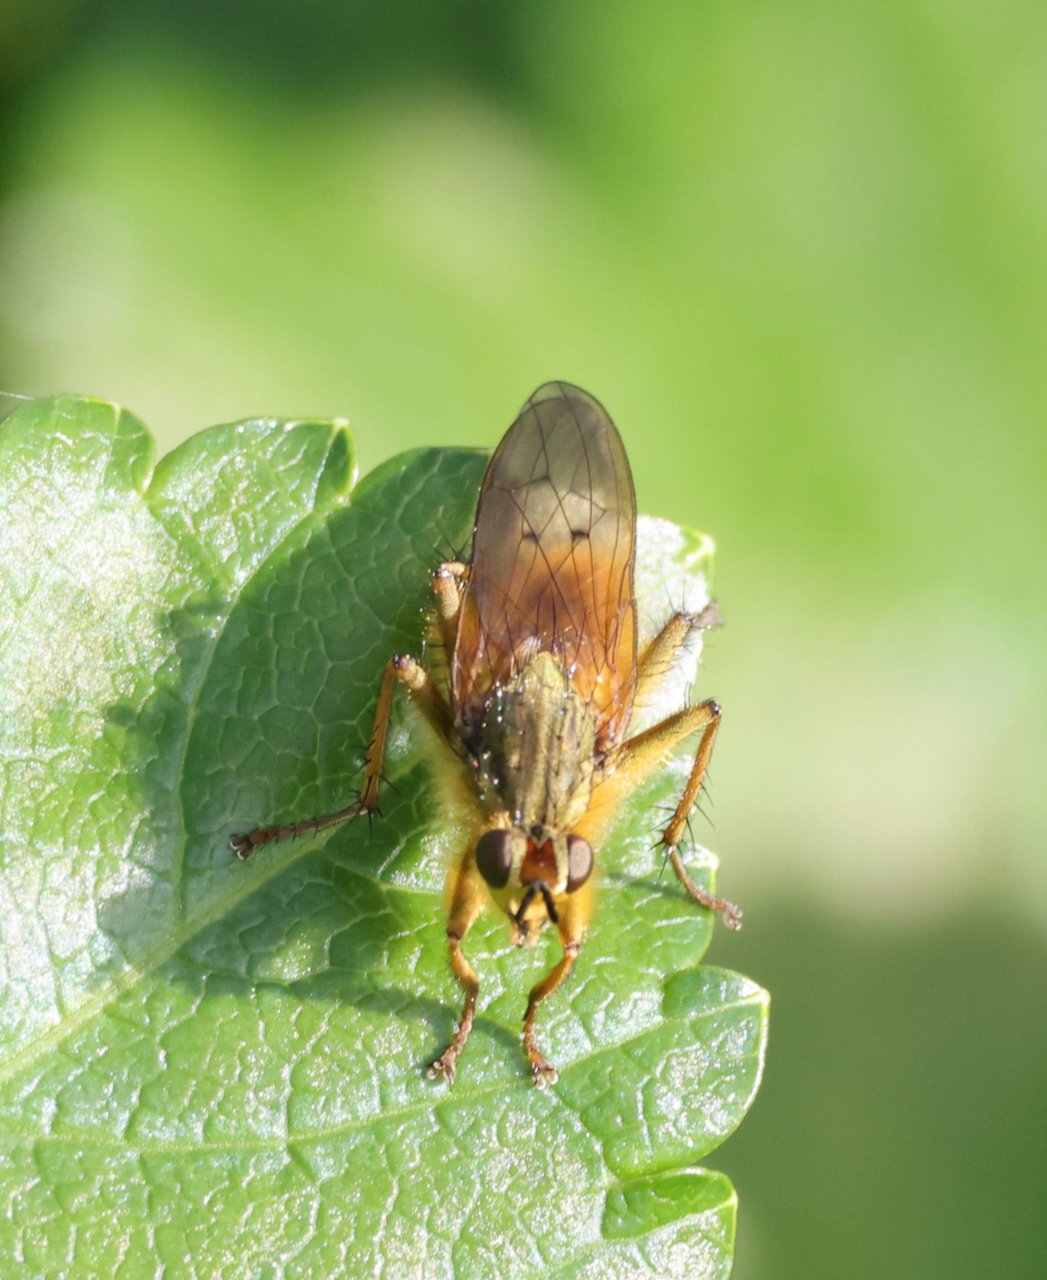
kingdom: Animalia
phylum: Arthropoda
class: Insecta
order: Diptera
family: Scathophagidae
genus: Scathophaga
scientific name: Scathophaga stercoraria
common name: Yellow dung fly
